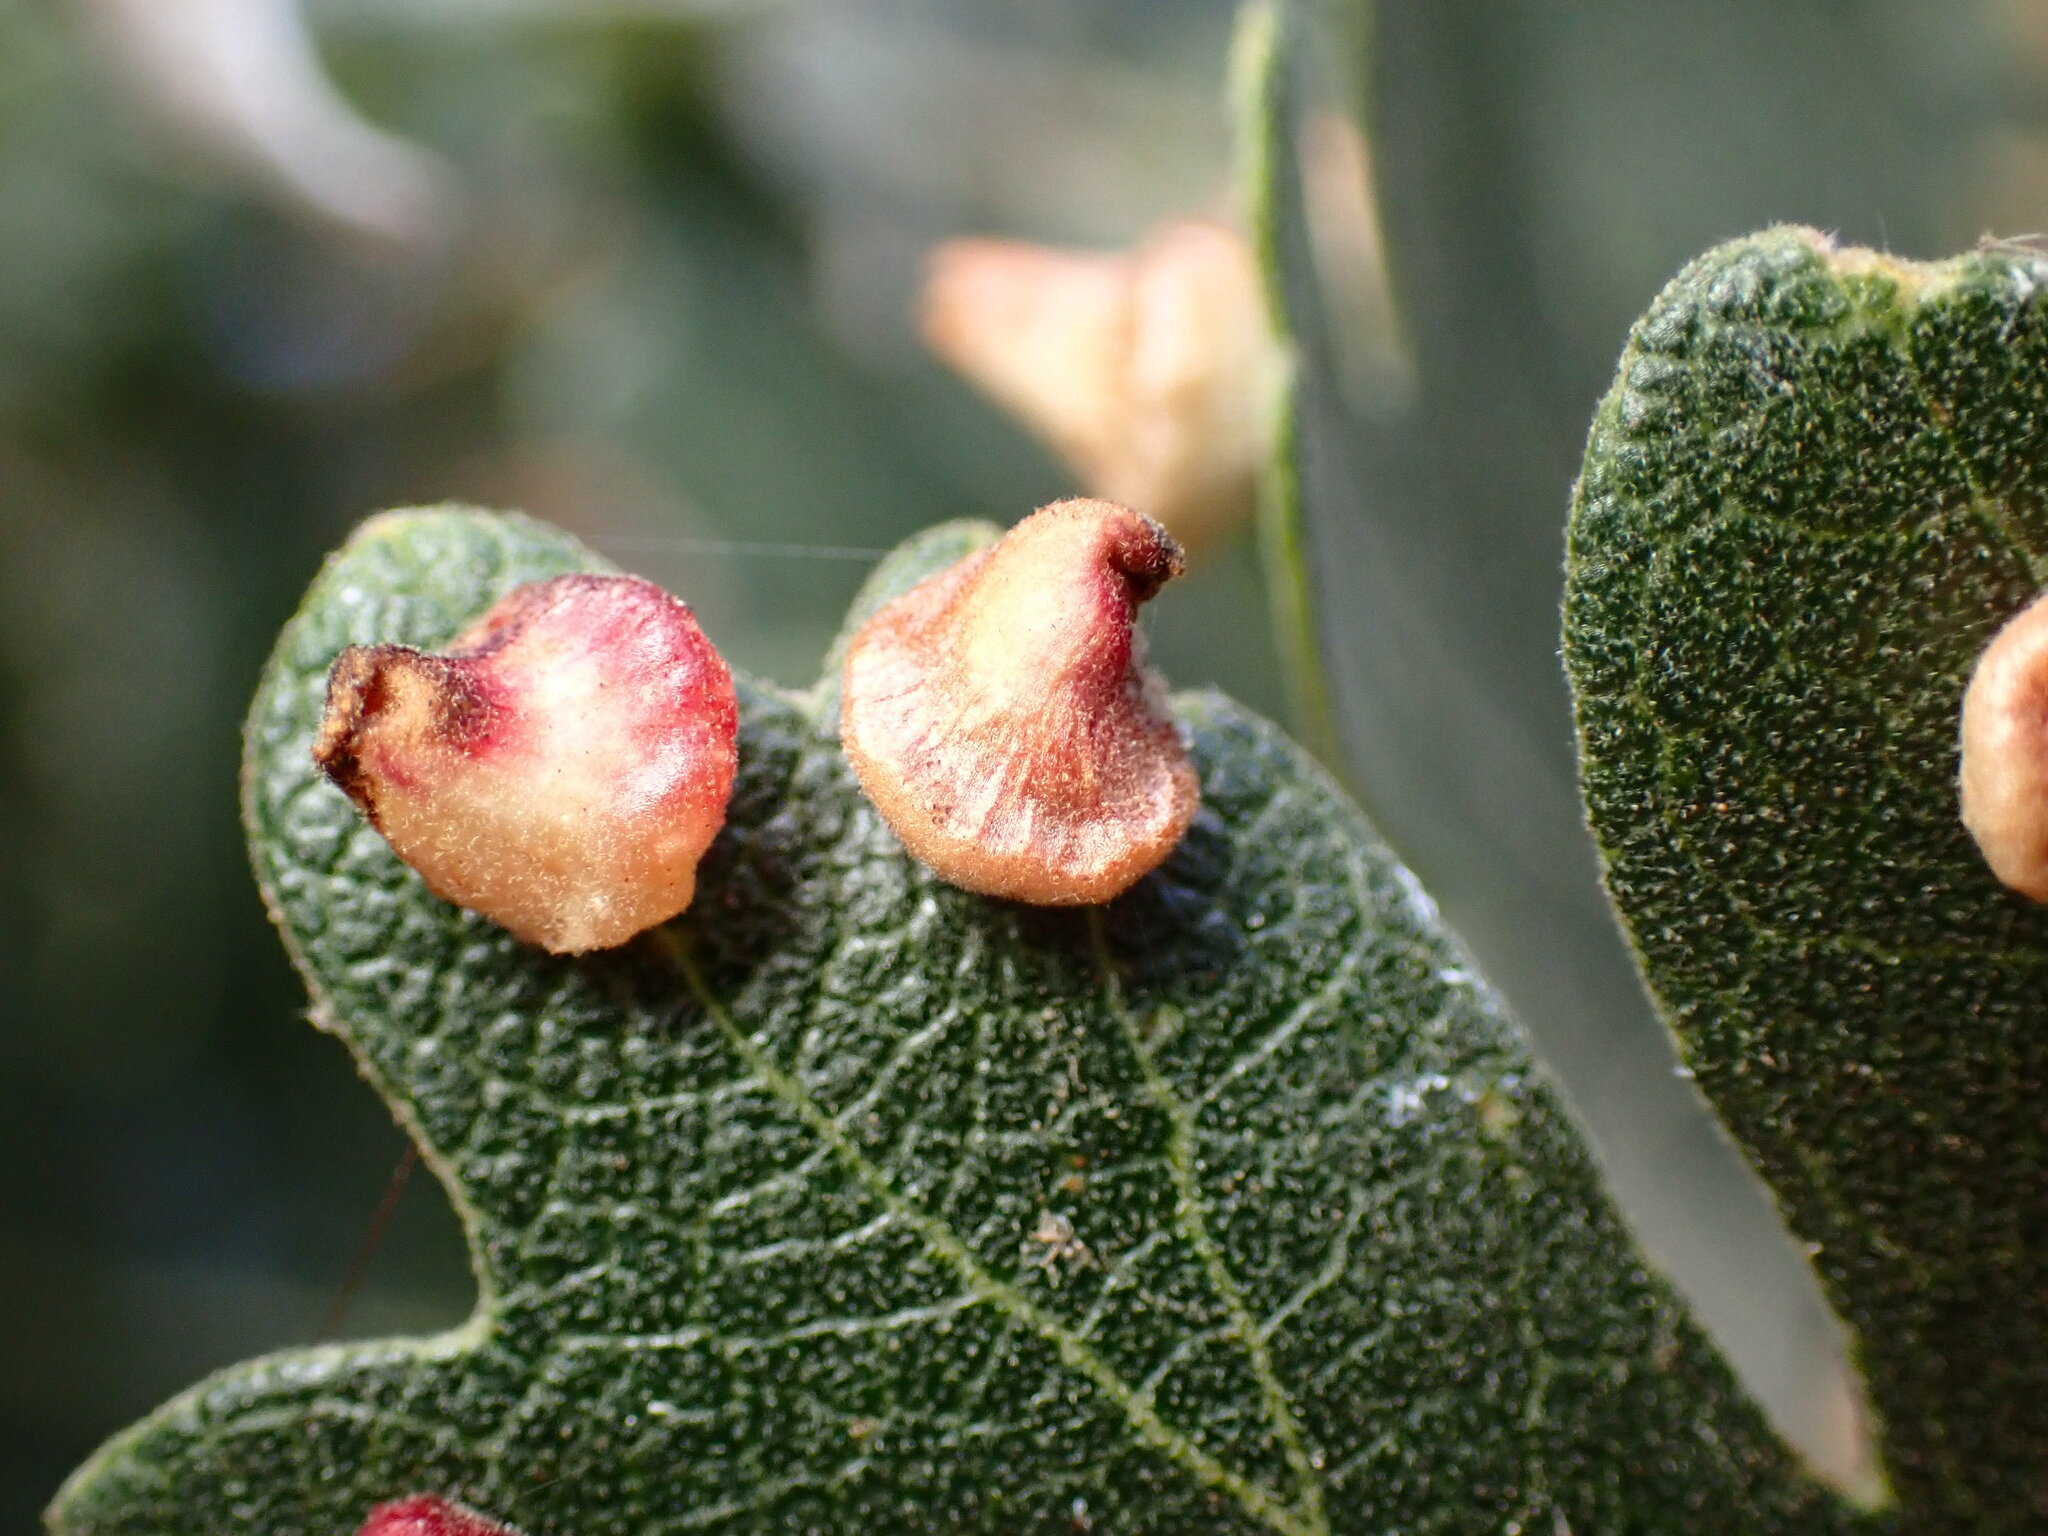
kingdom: Animalia
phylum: Arthropoda
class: Insecta
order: Hymenoptera
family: Cynipidae
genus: Andricus
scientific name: Andricus
